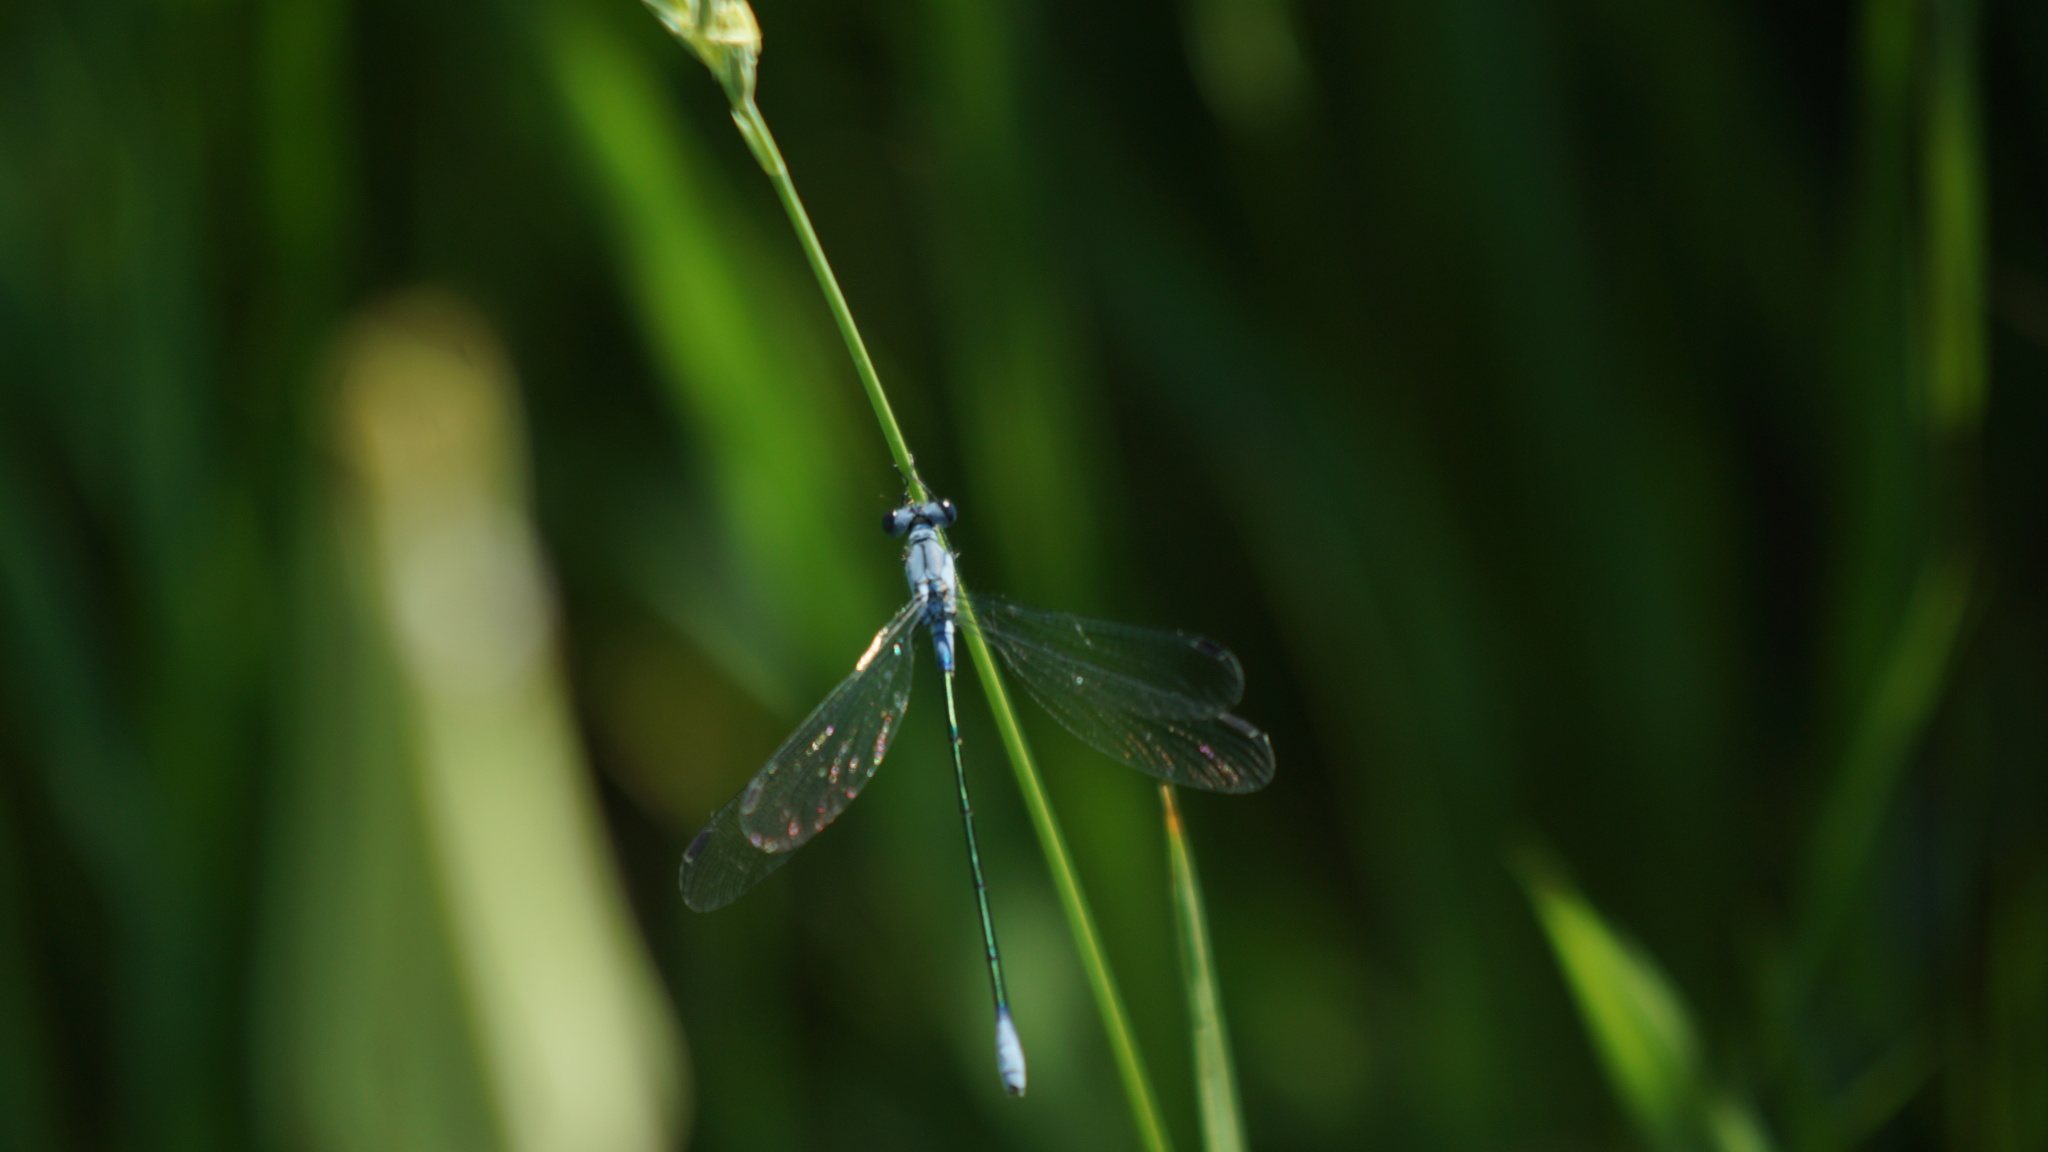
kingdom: Animalia
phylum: Arthropoda
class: Insecta
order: Odonata
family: Lestidae
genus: Lestes
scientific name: Lestes macrostigma
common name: Dark spreadwing
